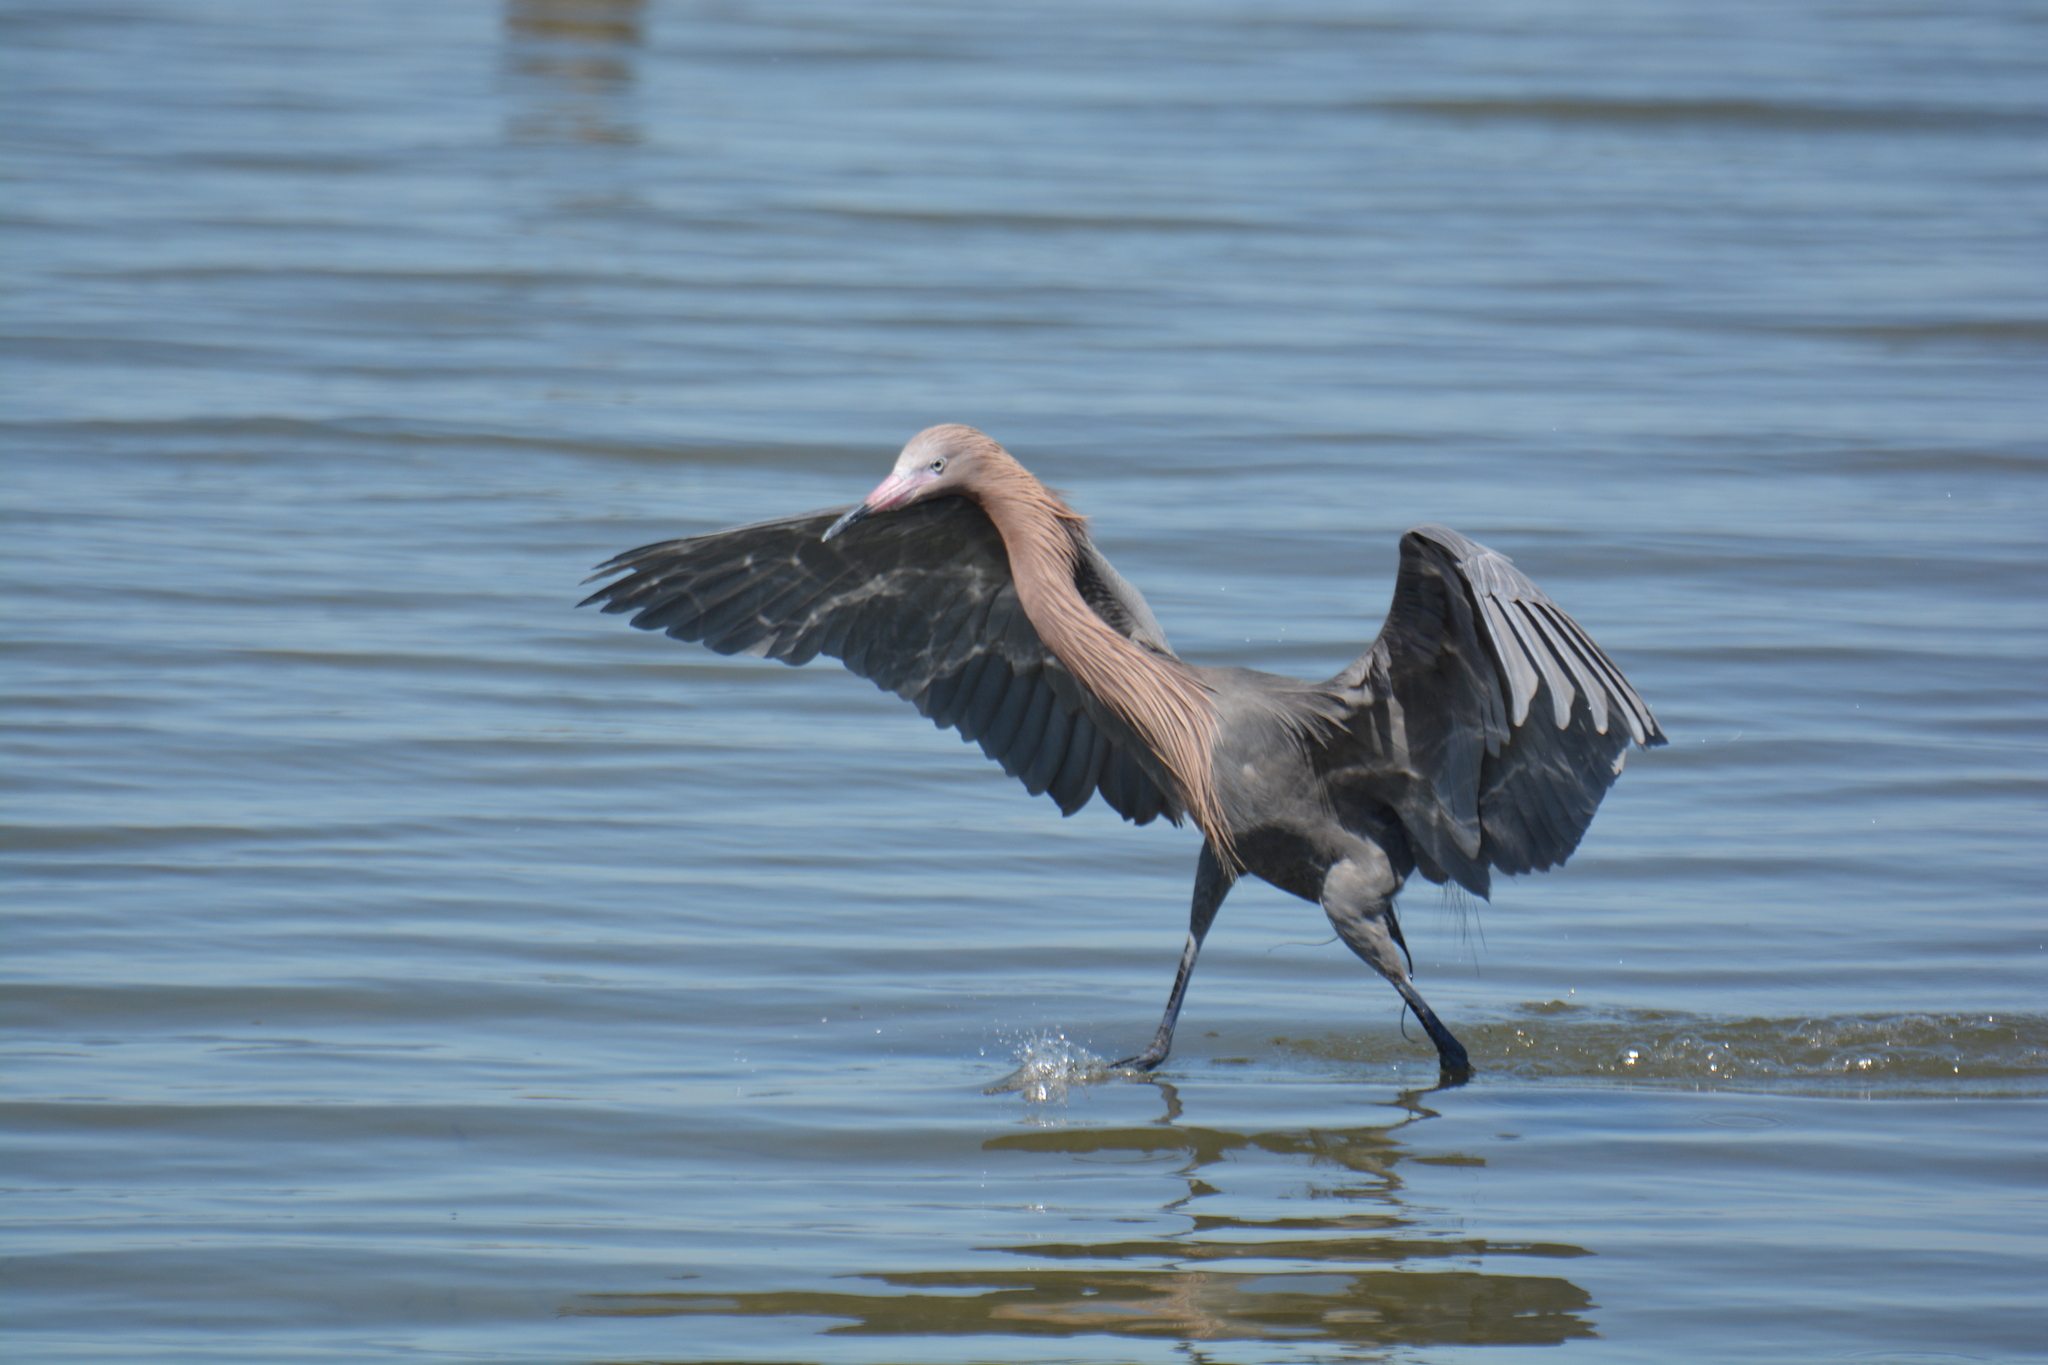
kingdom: Animalia
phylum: Chordata
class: Aves
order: Pelecaniformes
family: Ardeidae
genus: Egretta
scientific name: Egretta rufescens
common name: Reddish egret
